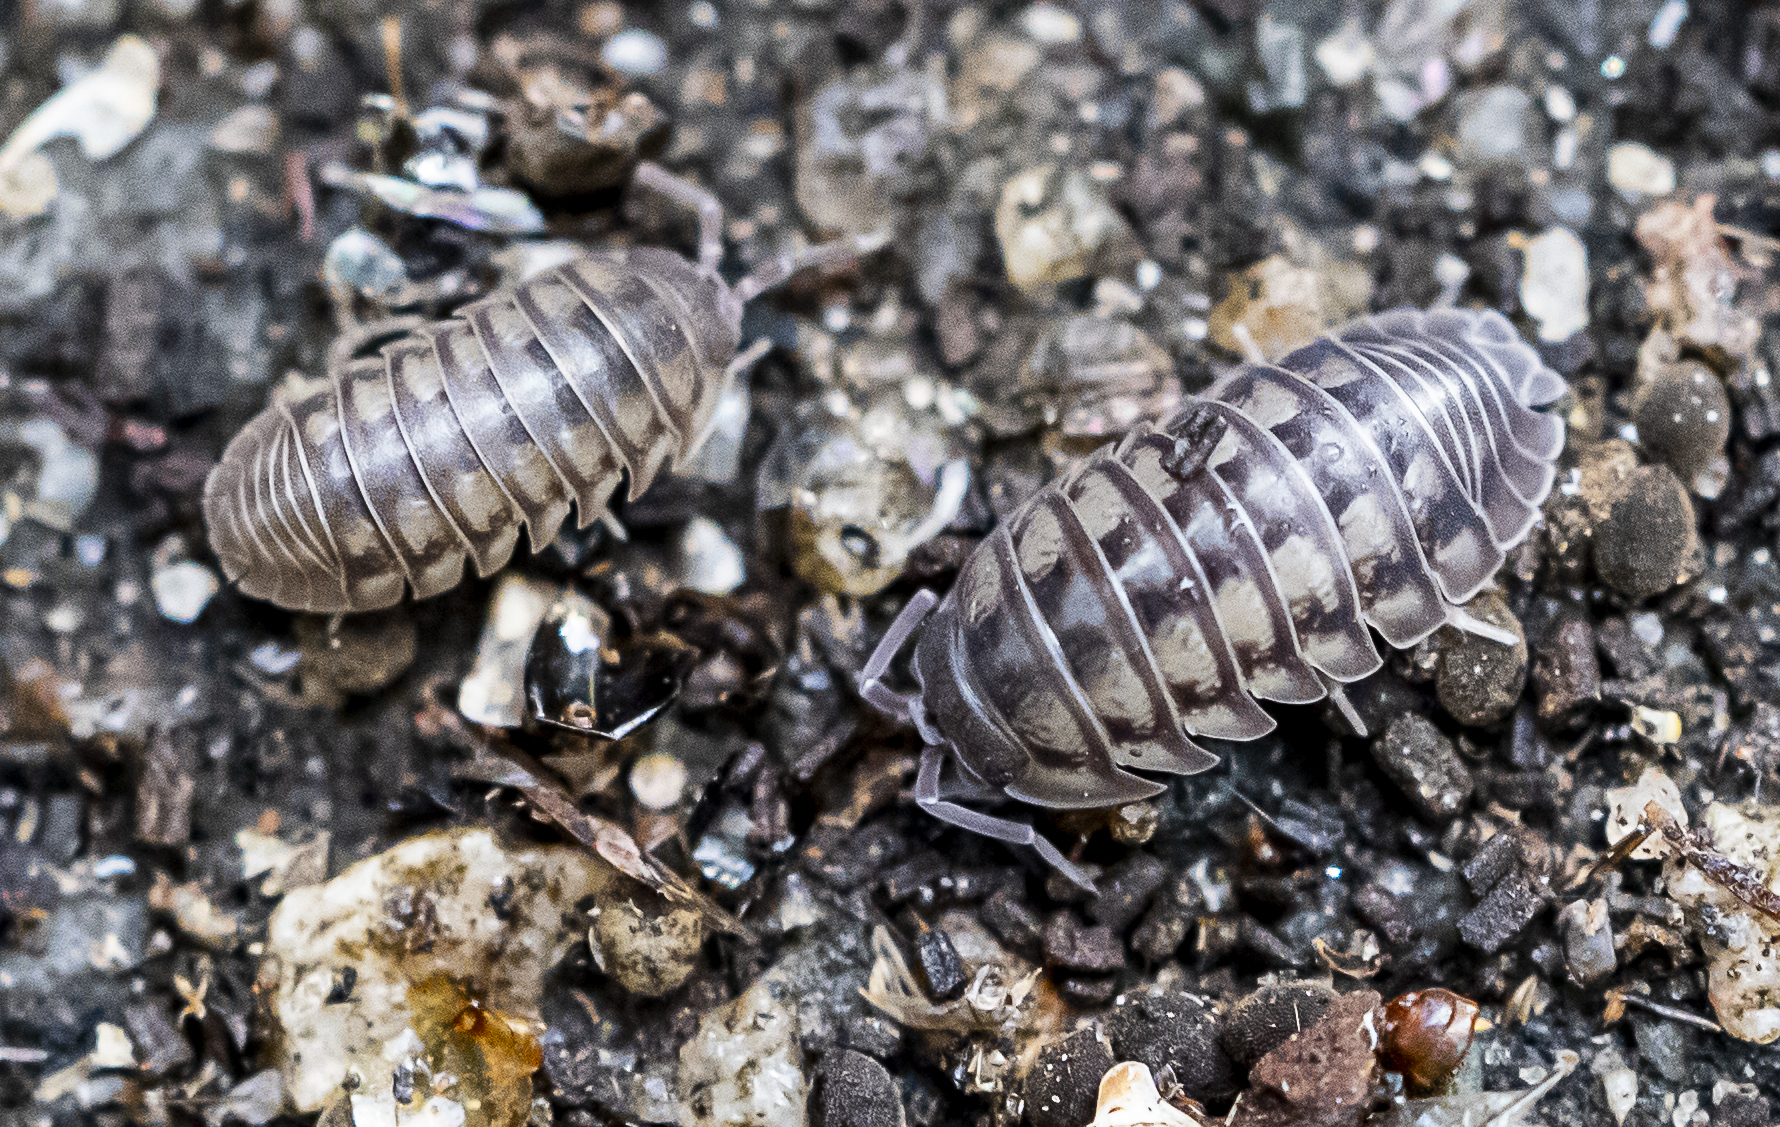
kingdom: Animalia
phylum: Arthropoda
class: Malacostraca
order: Isopoda
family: Armadillidiidae
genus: Armadillidium
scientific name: Armadillidium nasatum
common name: Isopod
